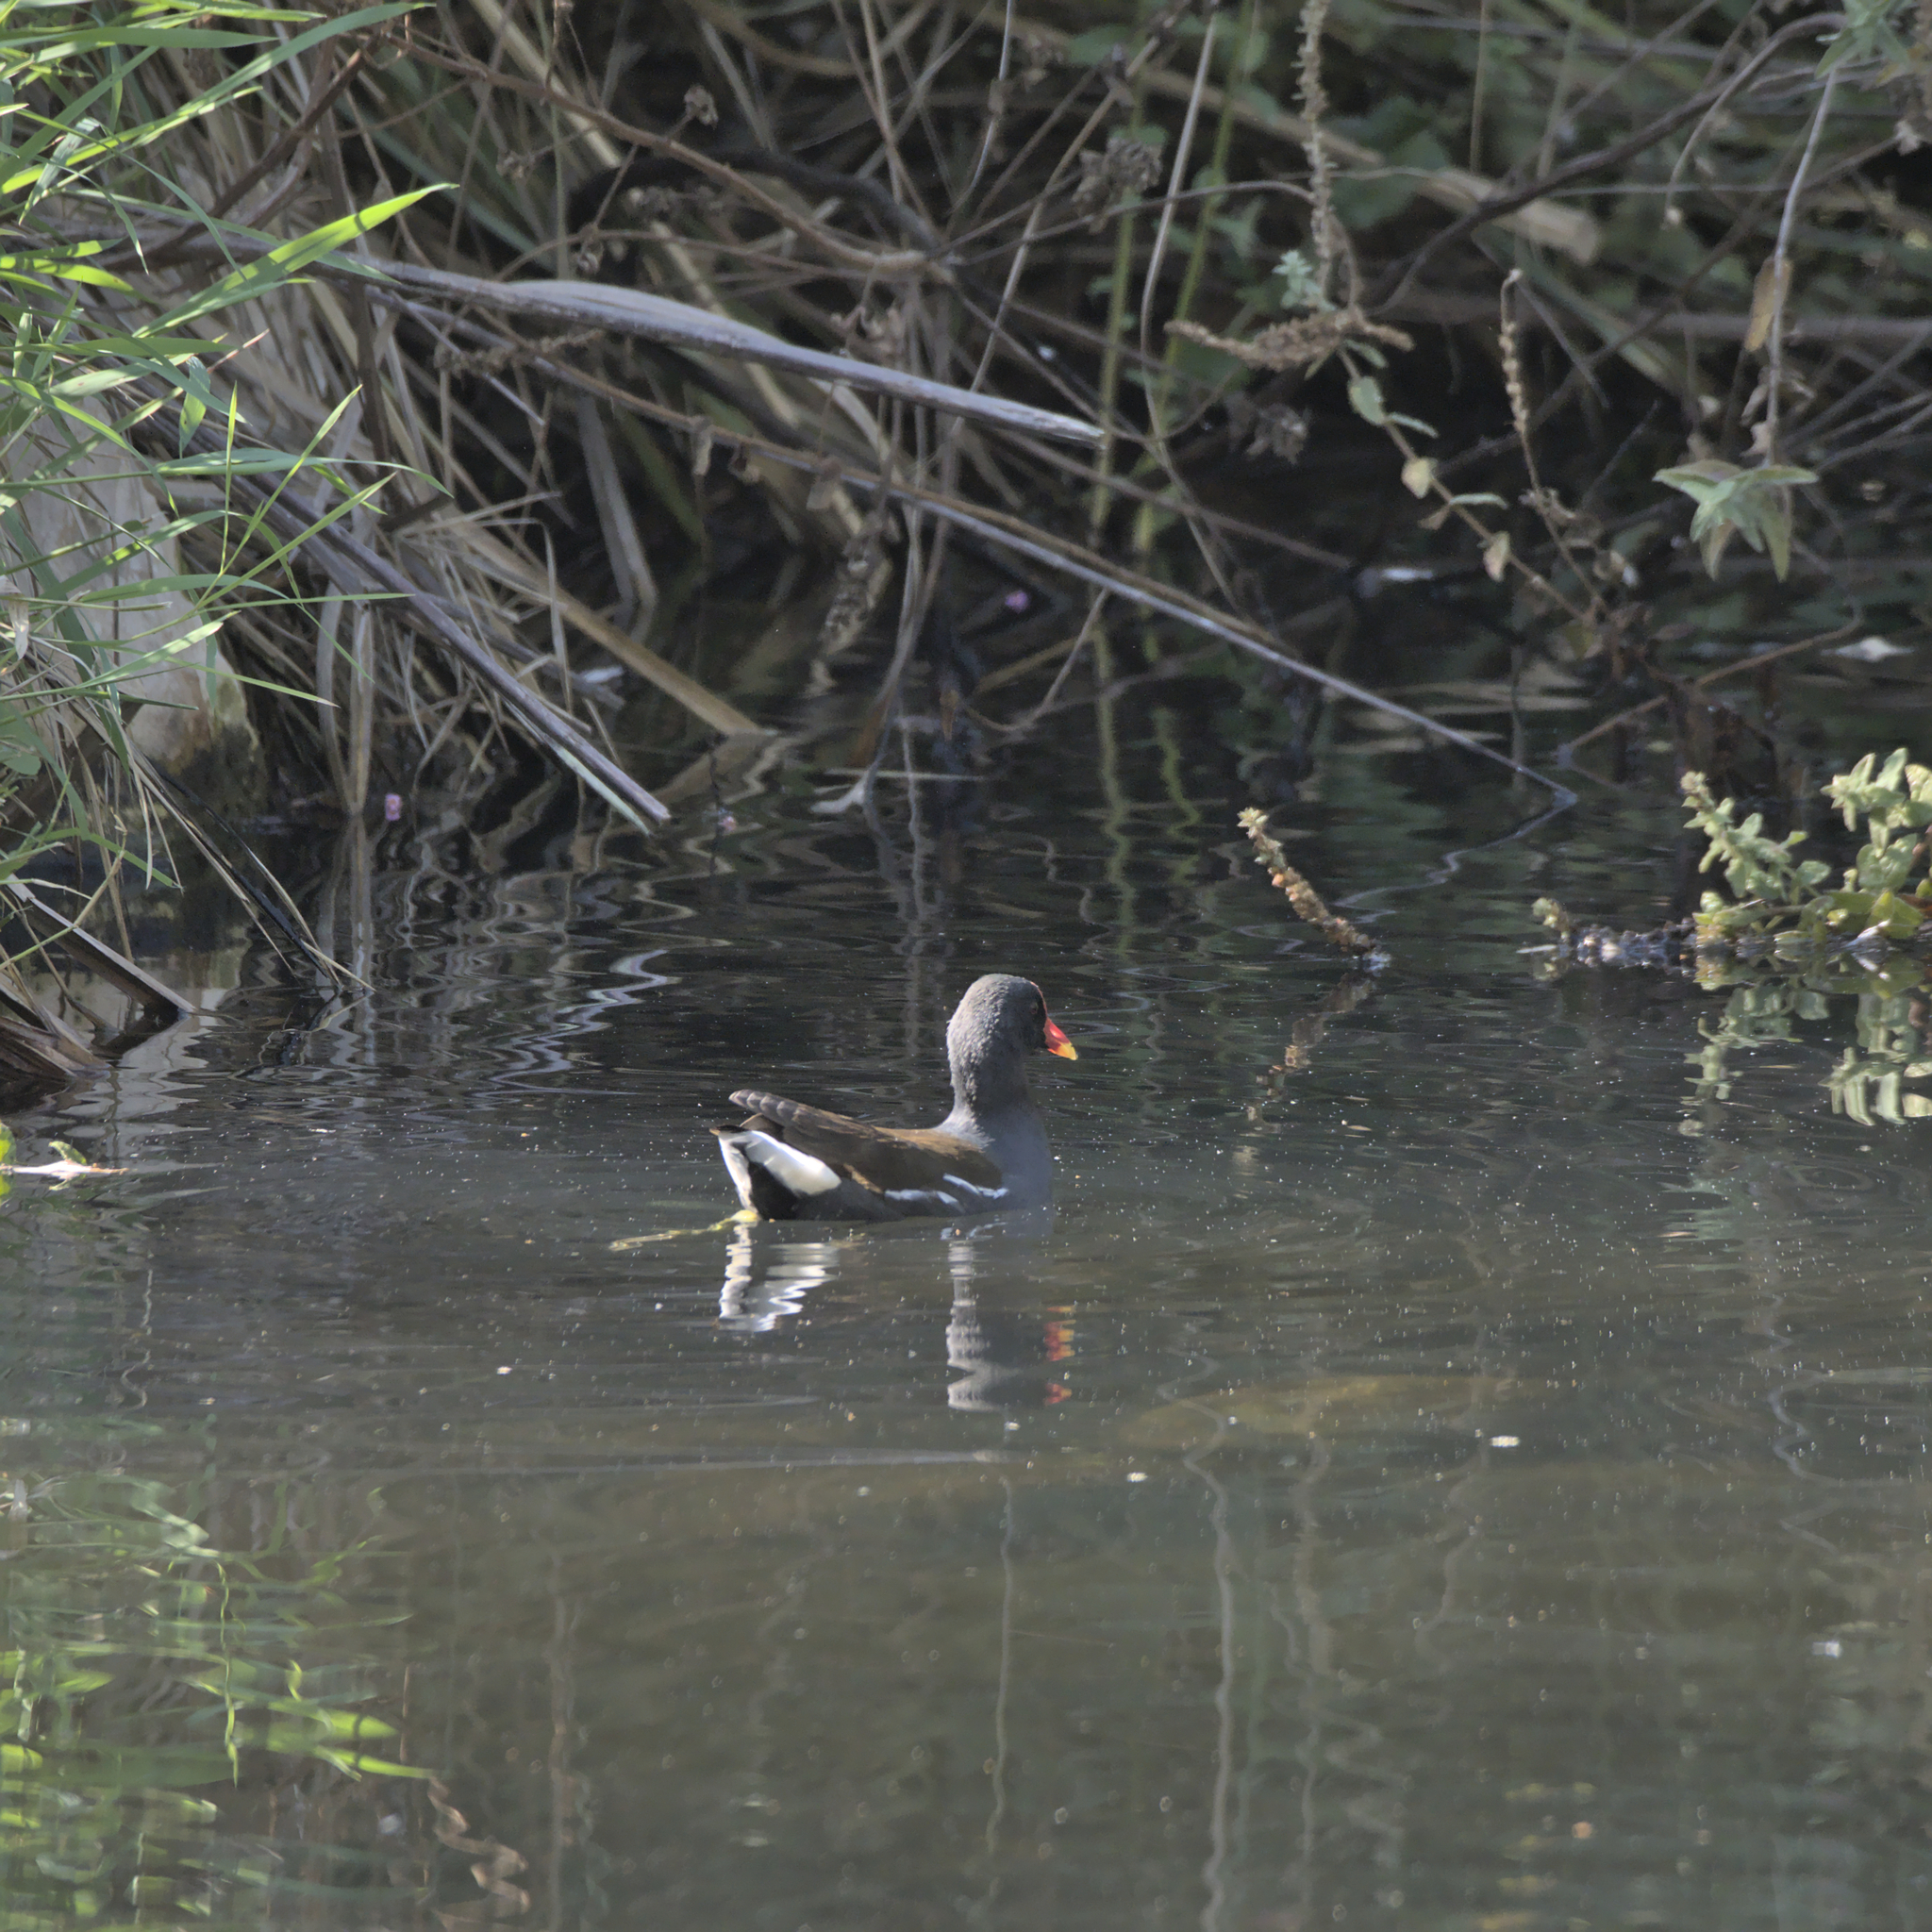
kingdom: Animalia
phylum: Chordata
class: Aves
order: Gruiformes
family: Rallidae
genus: Gallinula
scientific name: Gallinula chloropus
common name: Common moorhen
